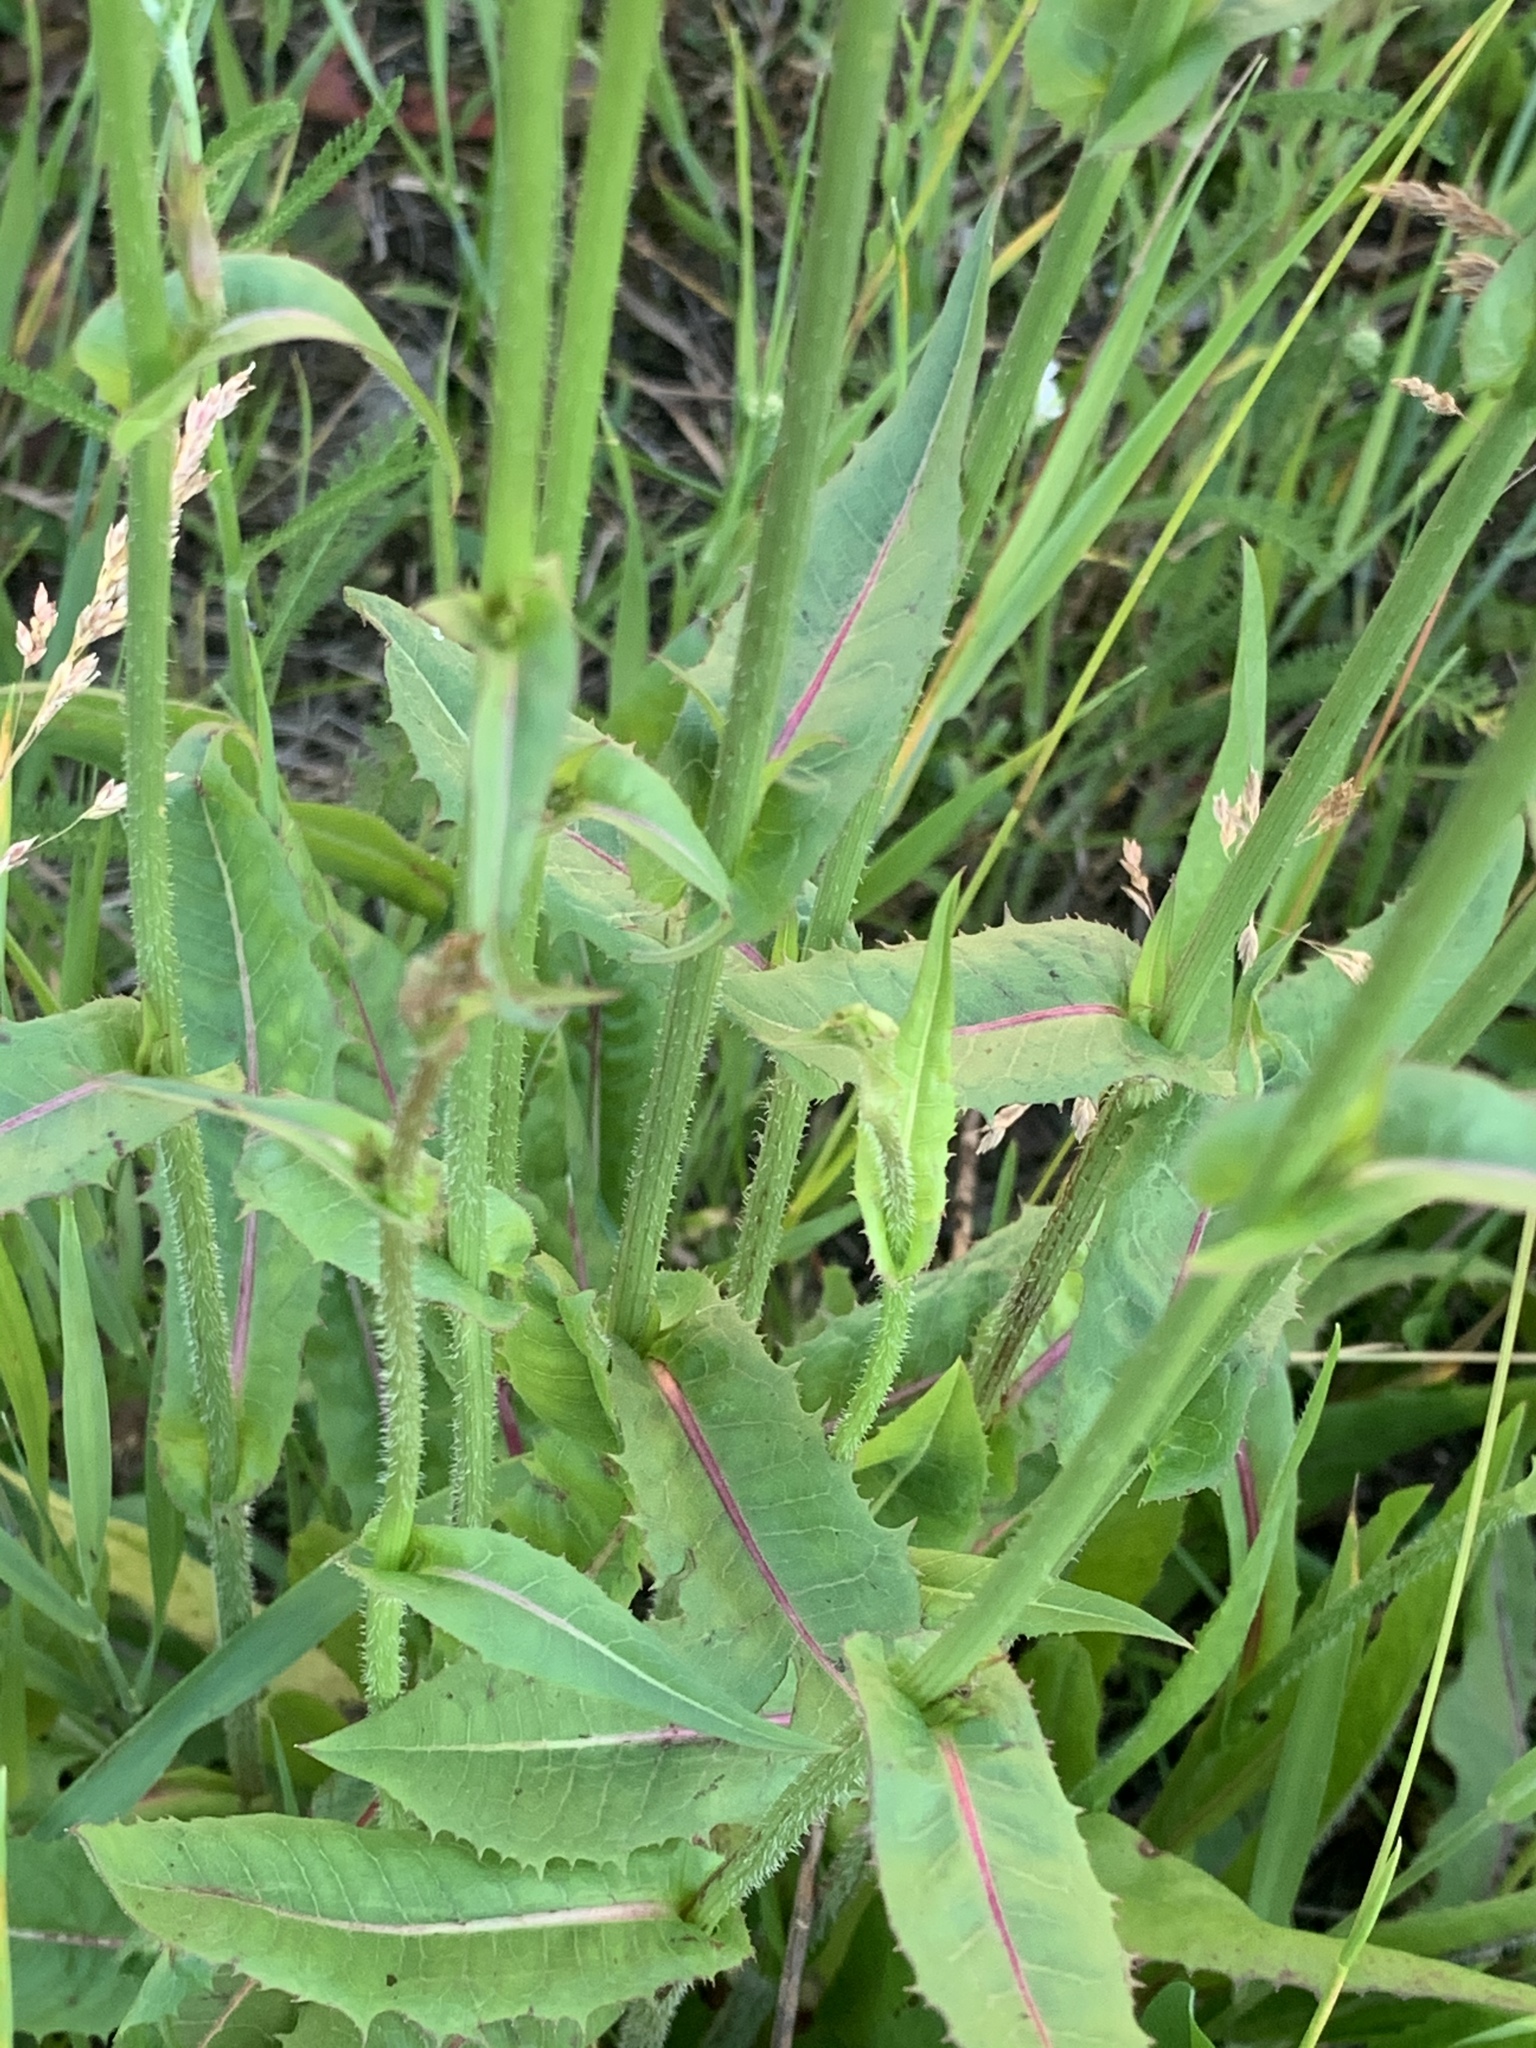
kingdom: Plantae
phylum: Tracheophyta
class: Magnoliopsida
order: Asterales
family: Asteraceae
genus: Cichorium
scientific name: Cichorium intybus
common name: Chicory
